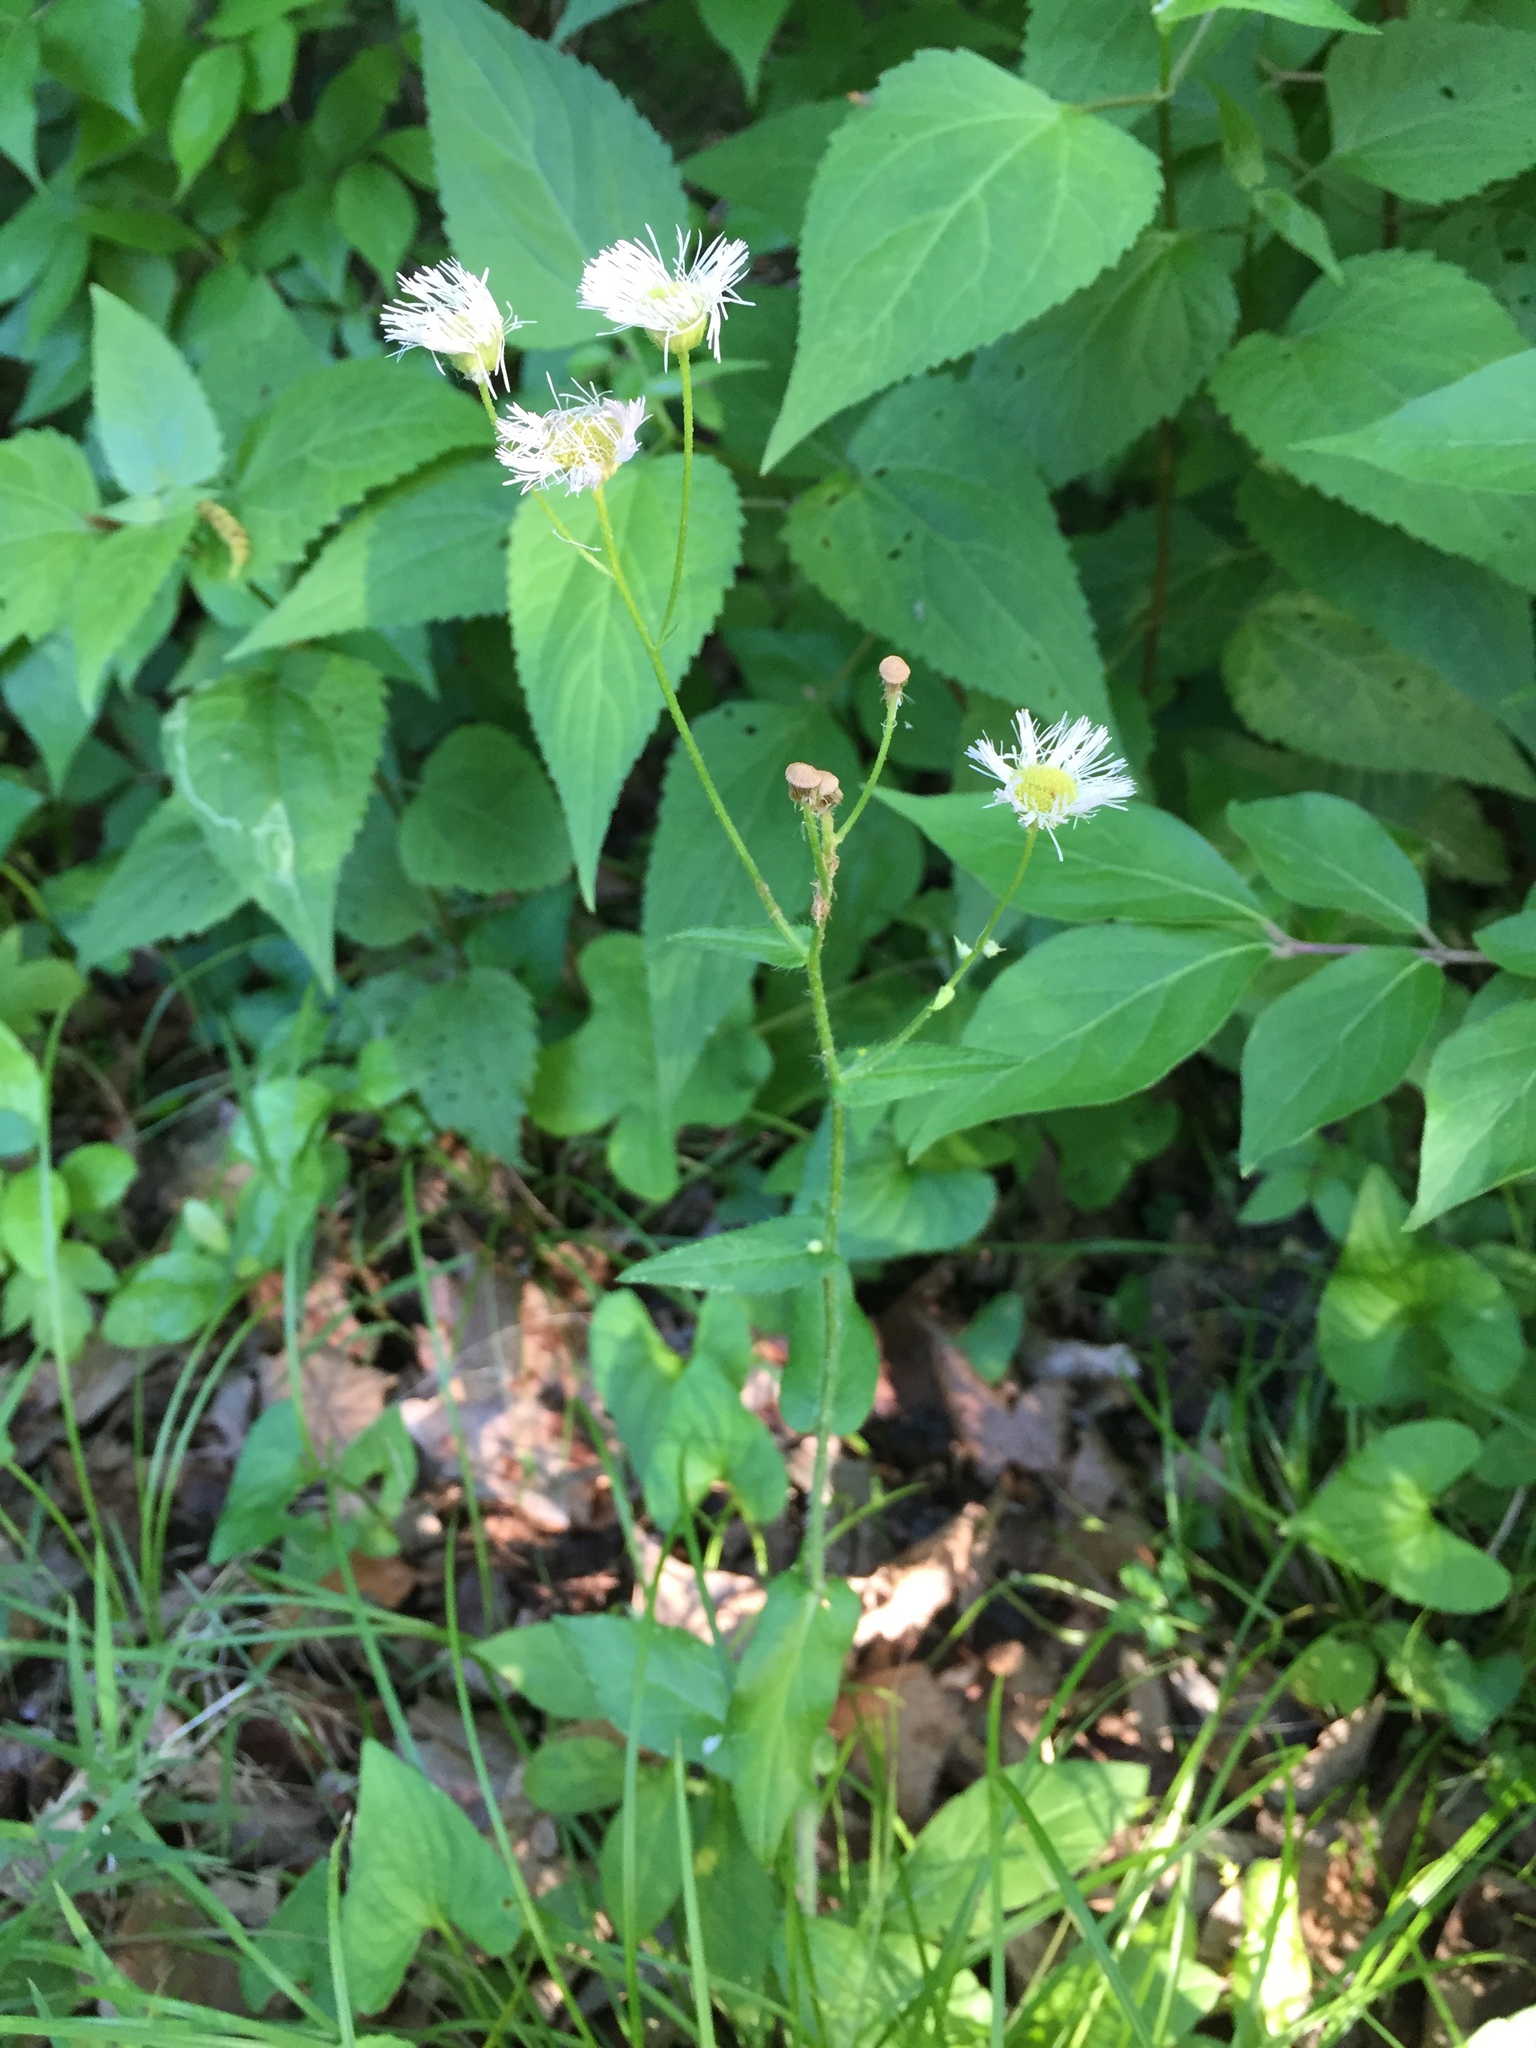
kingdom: Plantae
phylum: Tracheophyta
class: Magnoliopsida
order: Asterales
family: Asteraceae
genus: Erigeron
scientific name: Erigeron philadelphicus
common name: Robin's-plantain
